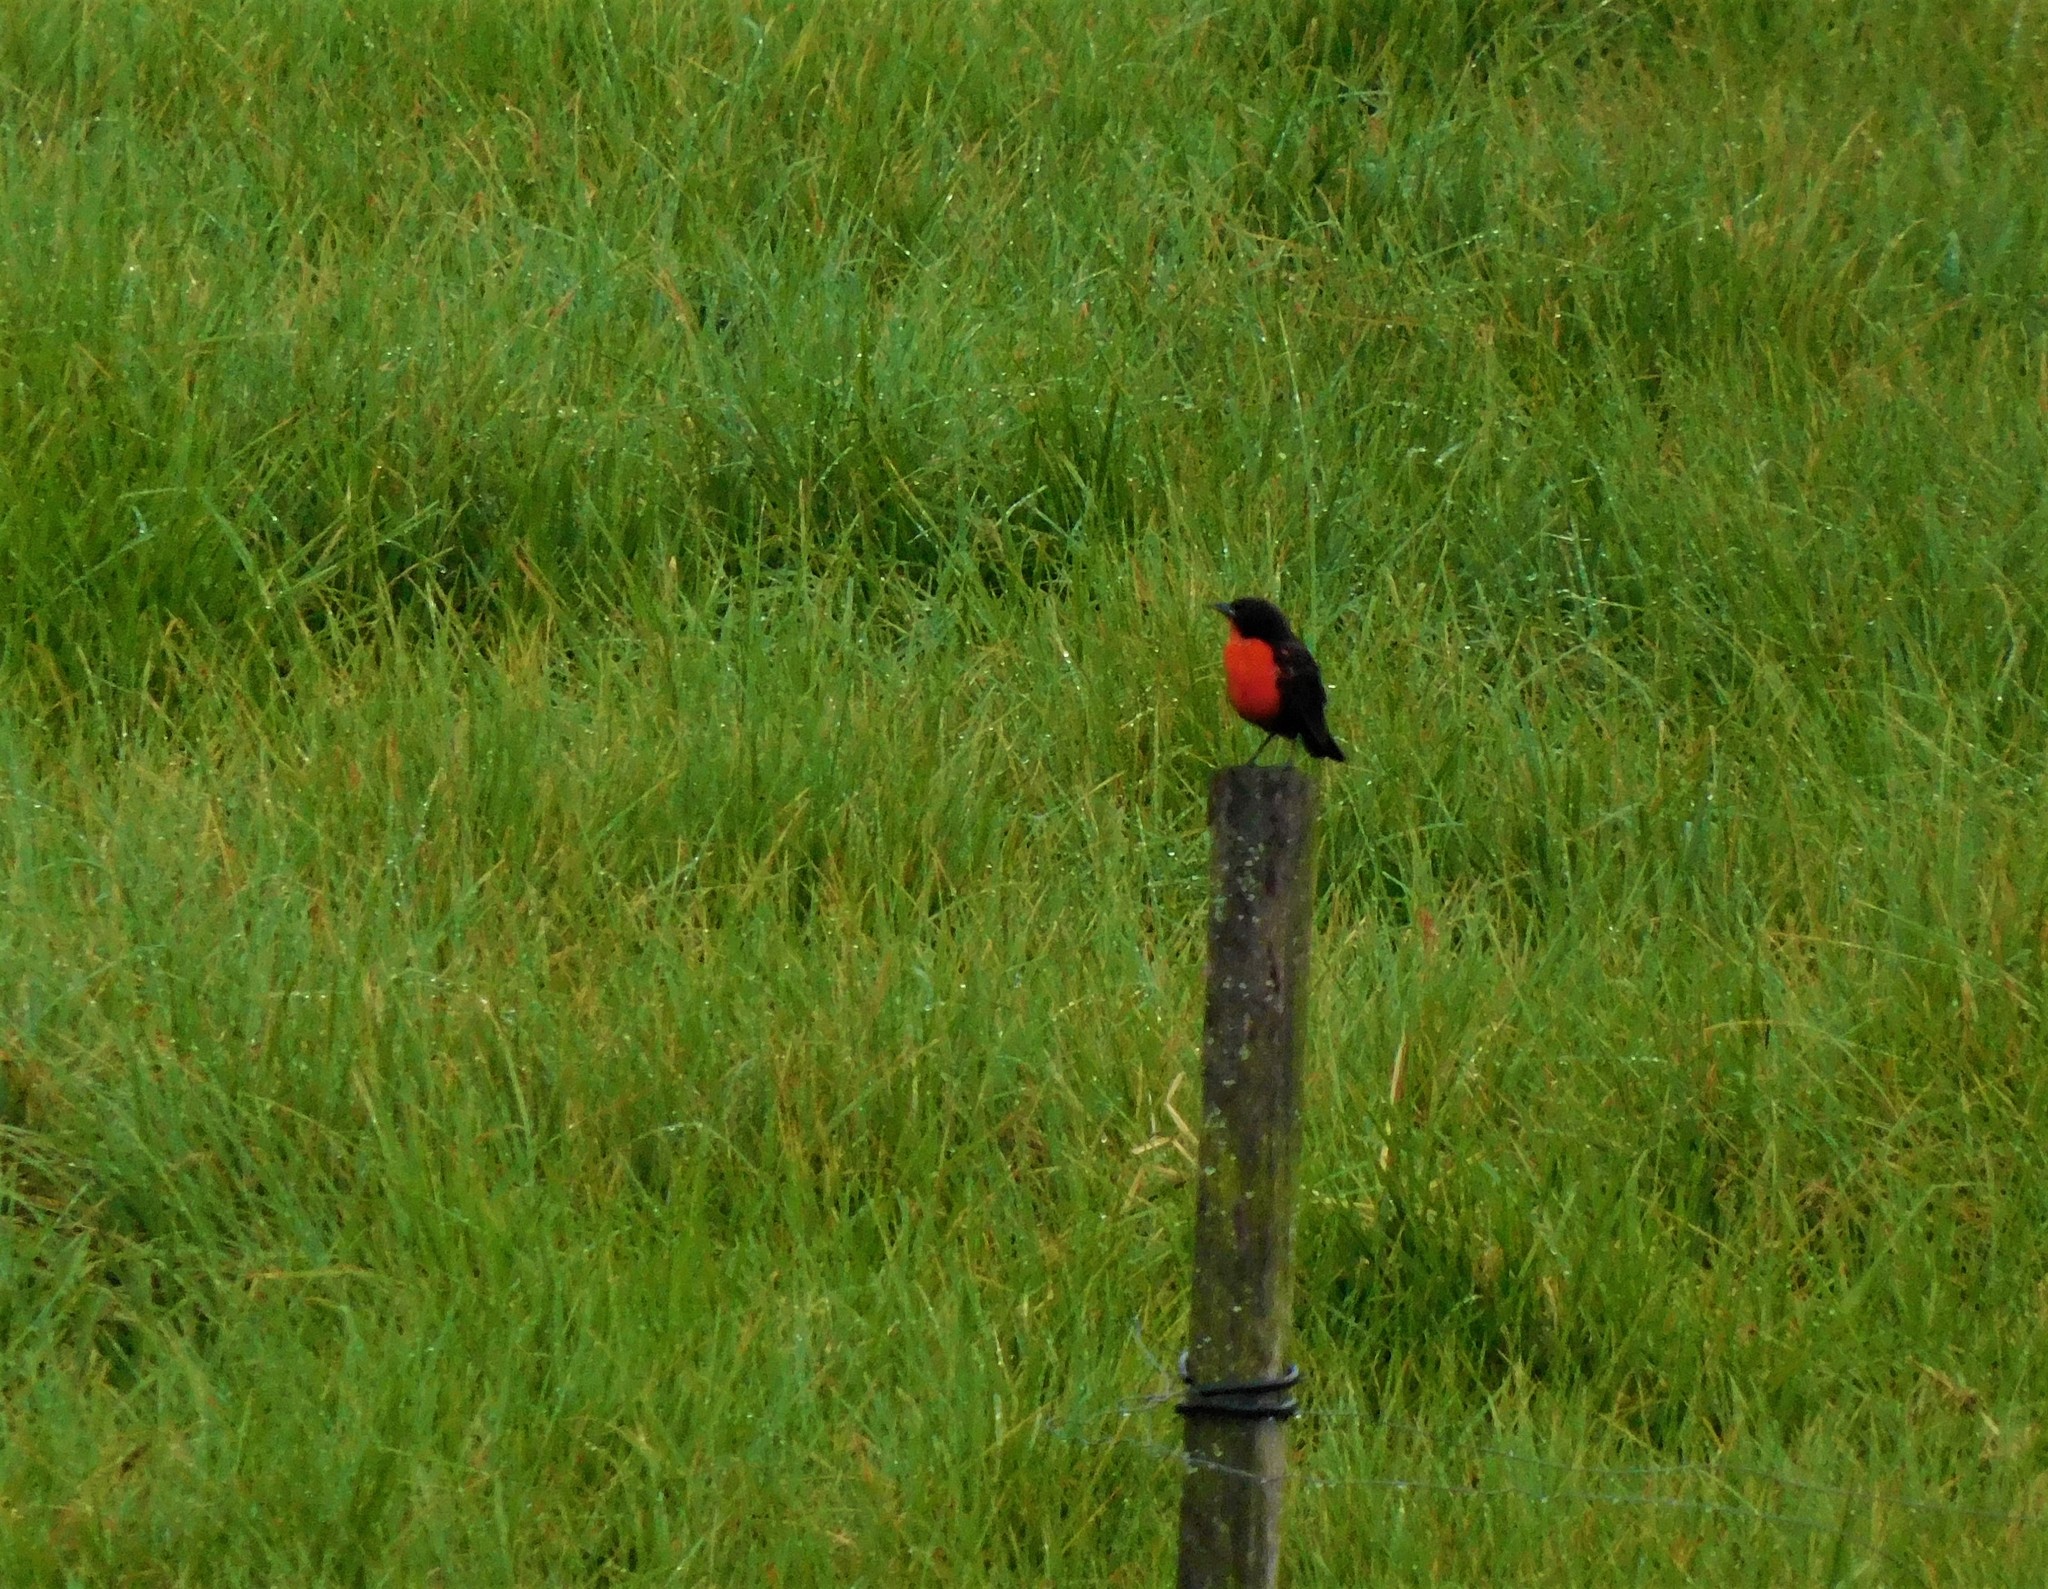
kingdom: Animalia
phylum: Chordata
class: Aves
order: Passeriformes
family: Icteridae
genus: Sturnella
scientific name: Sturnella militaris
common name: Red-breasted blackbird
